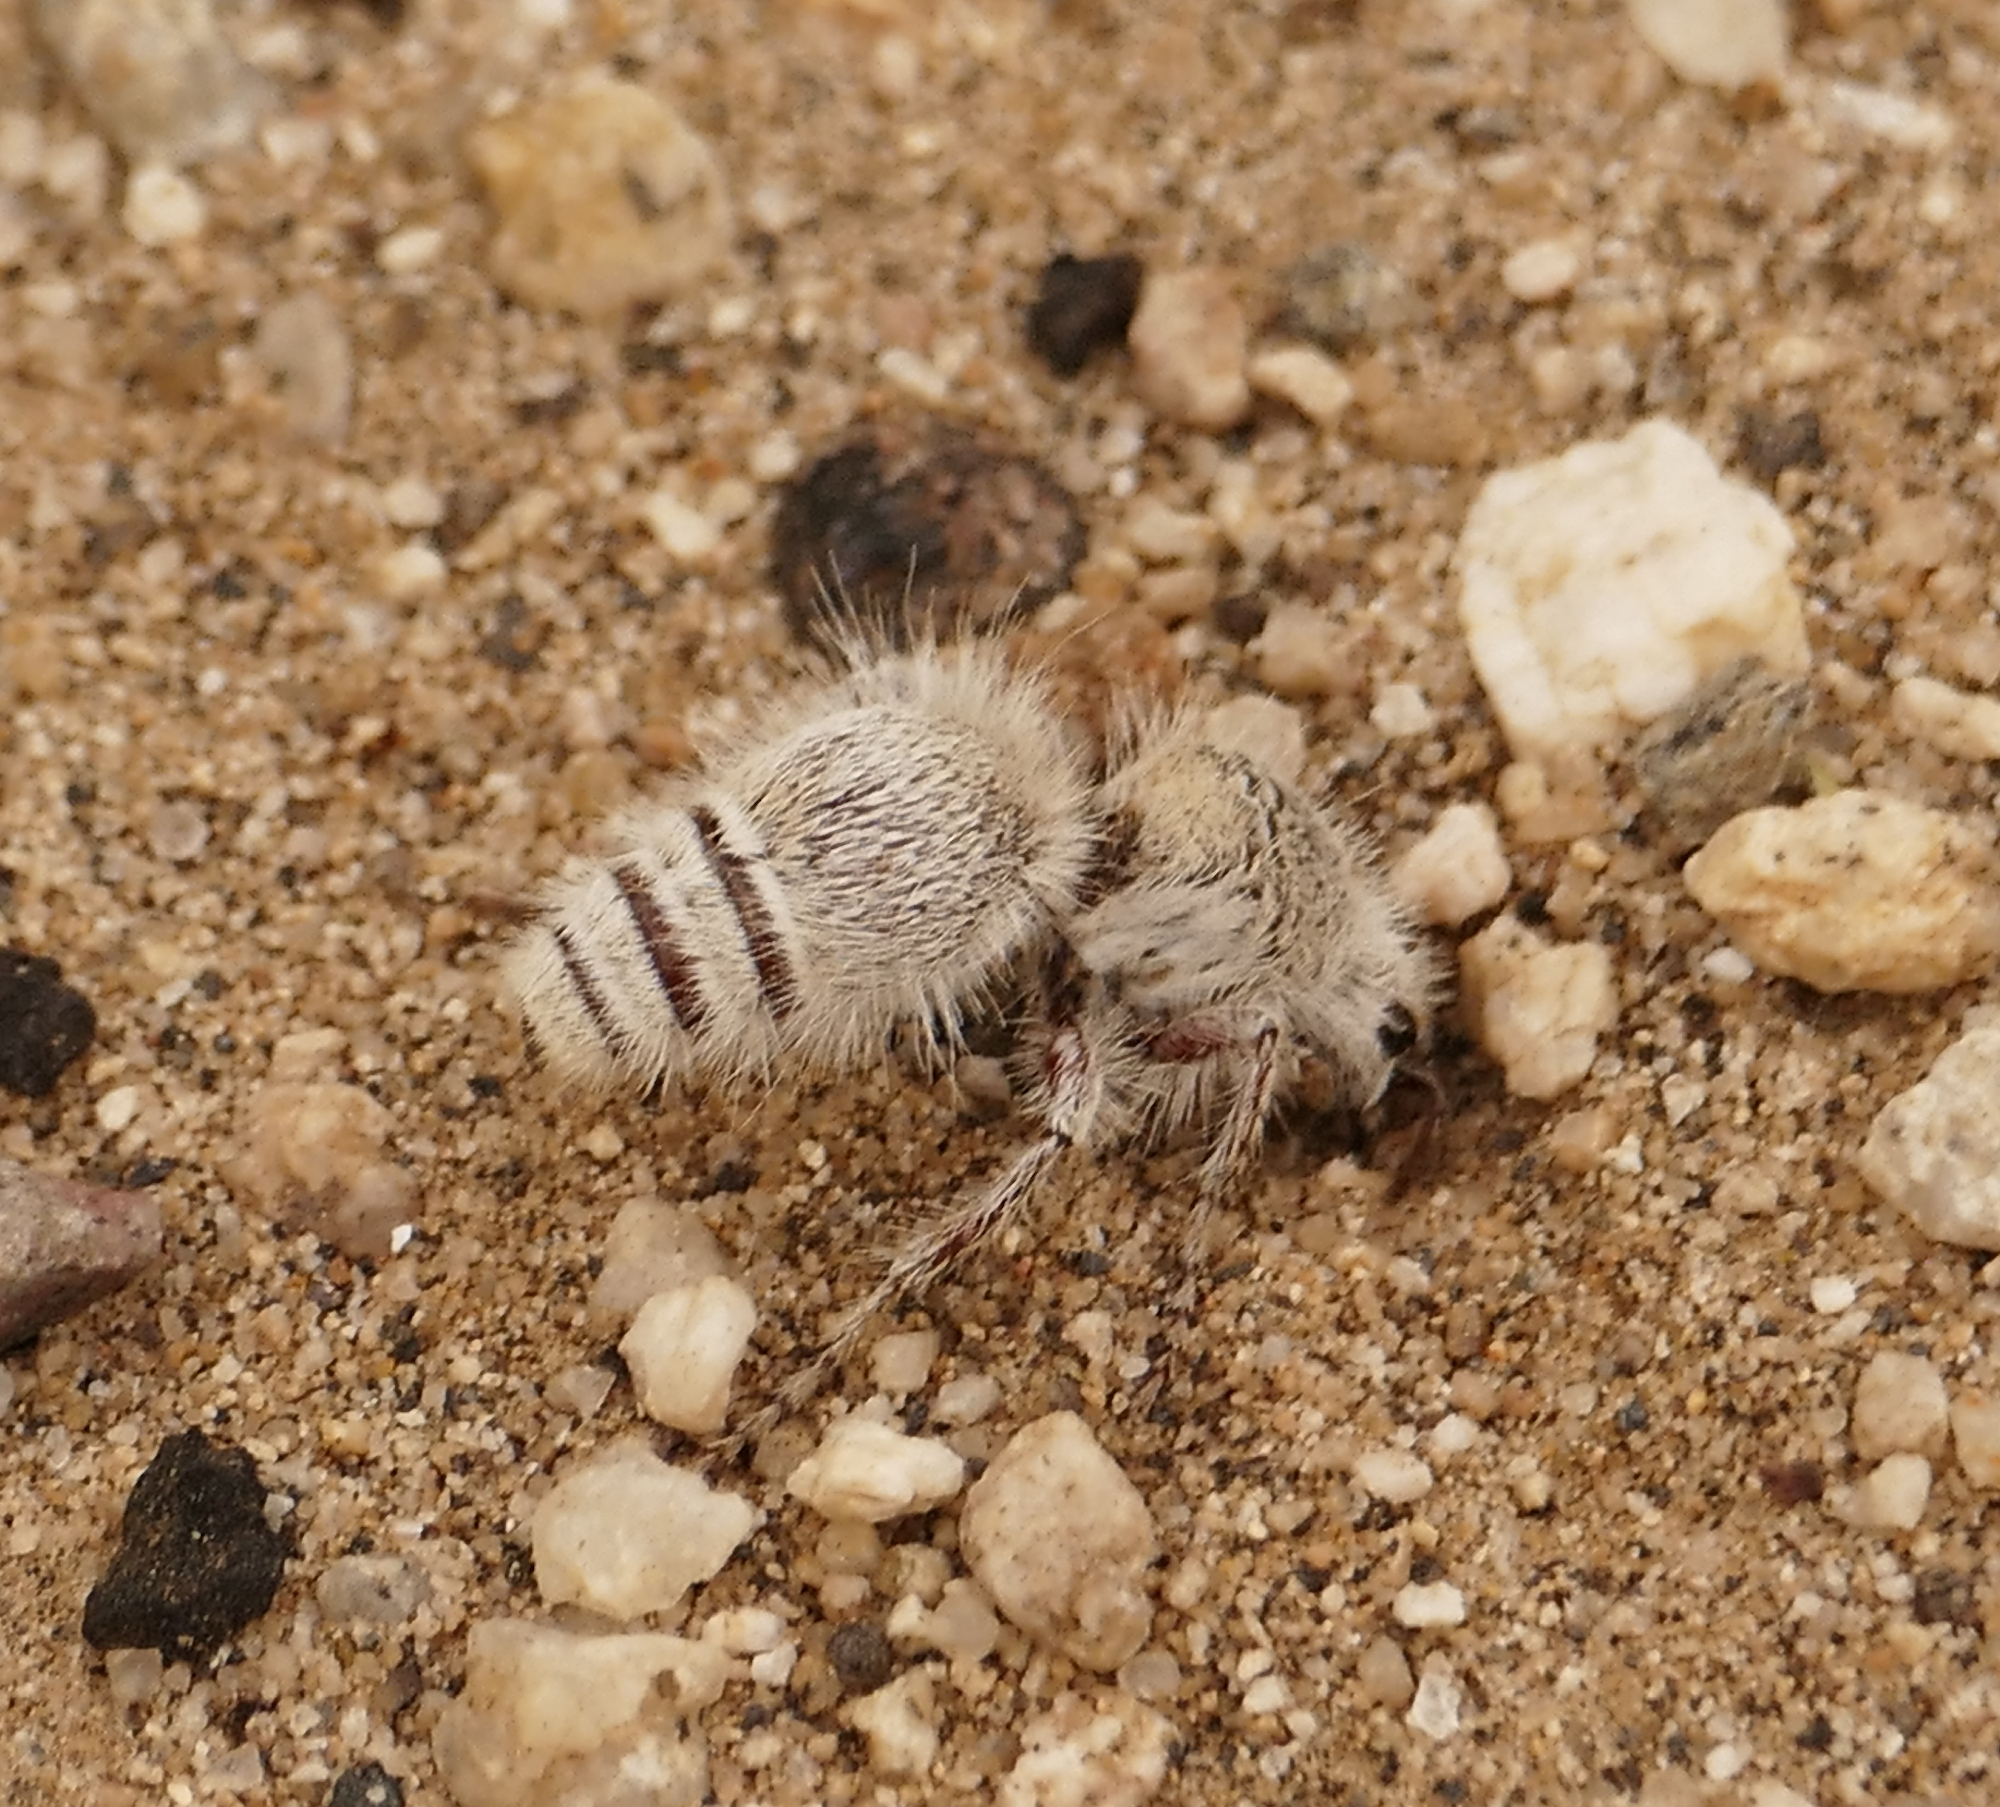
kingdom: Animalia
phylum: Arthropoda
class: Insecta
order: Hymenoptera
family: Mutillidae
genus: Dasymutilla
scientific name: Dasymutilla gloriosa
